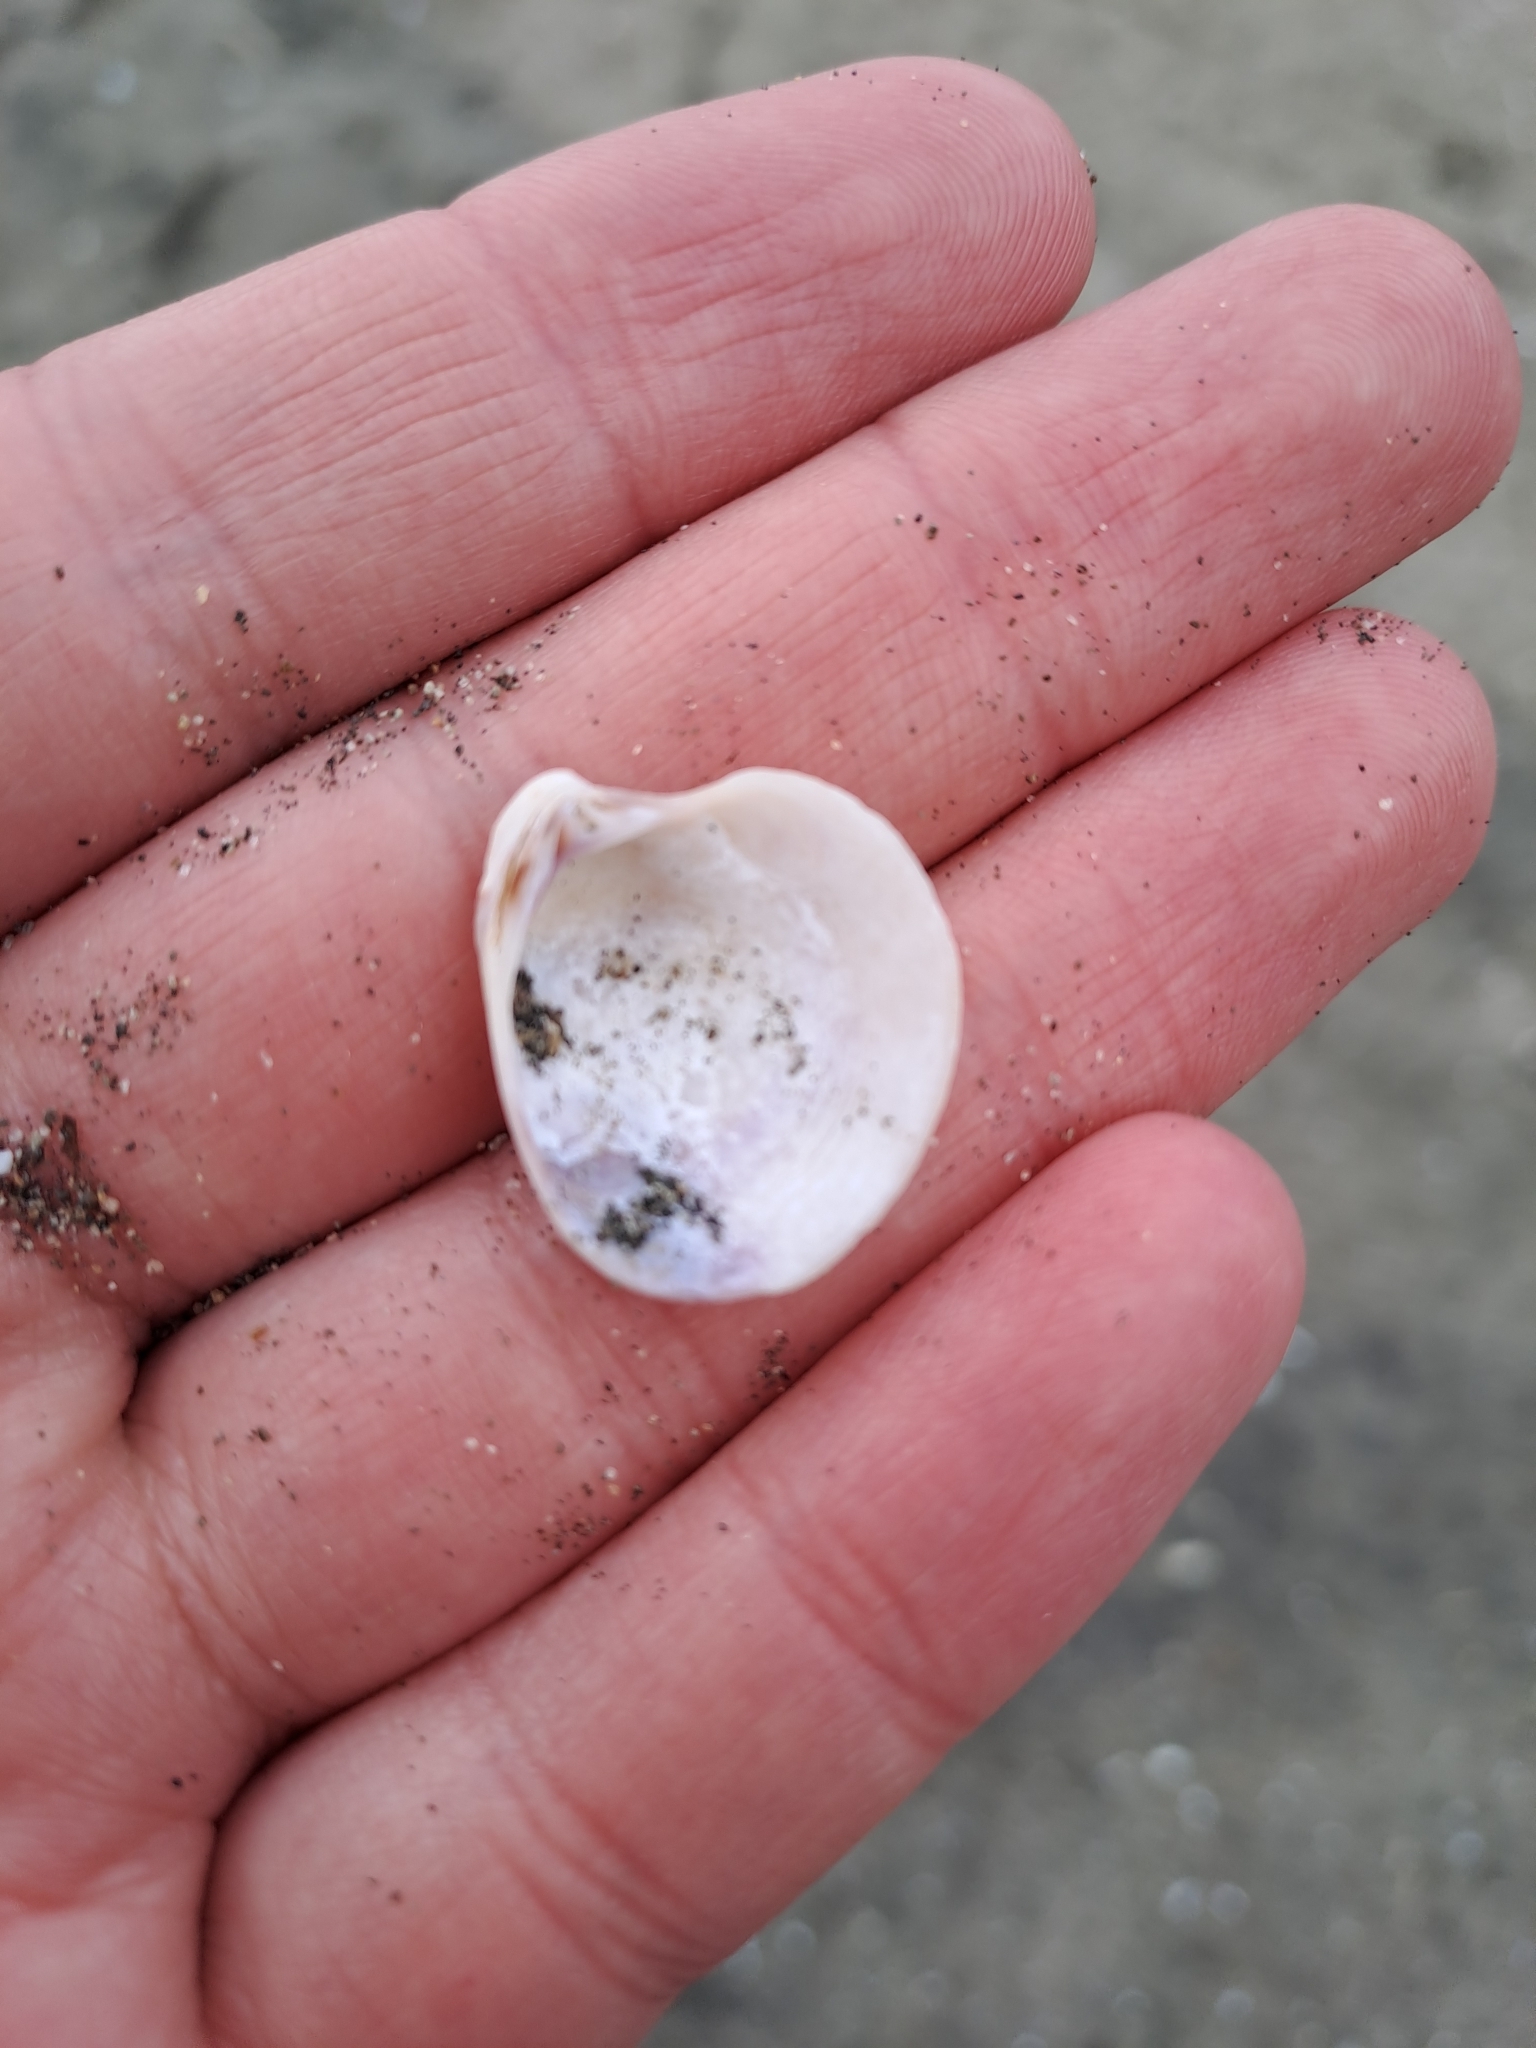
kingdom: Animalia
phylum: Mollusca
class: Bivalvia
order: Venerida
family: Veneridae
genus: Chamelea
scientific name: Chamelea gallina
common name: Chicken venus
